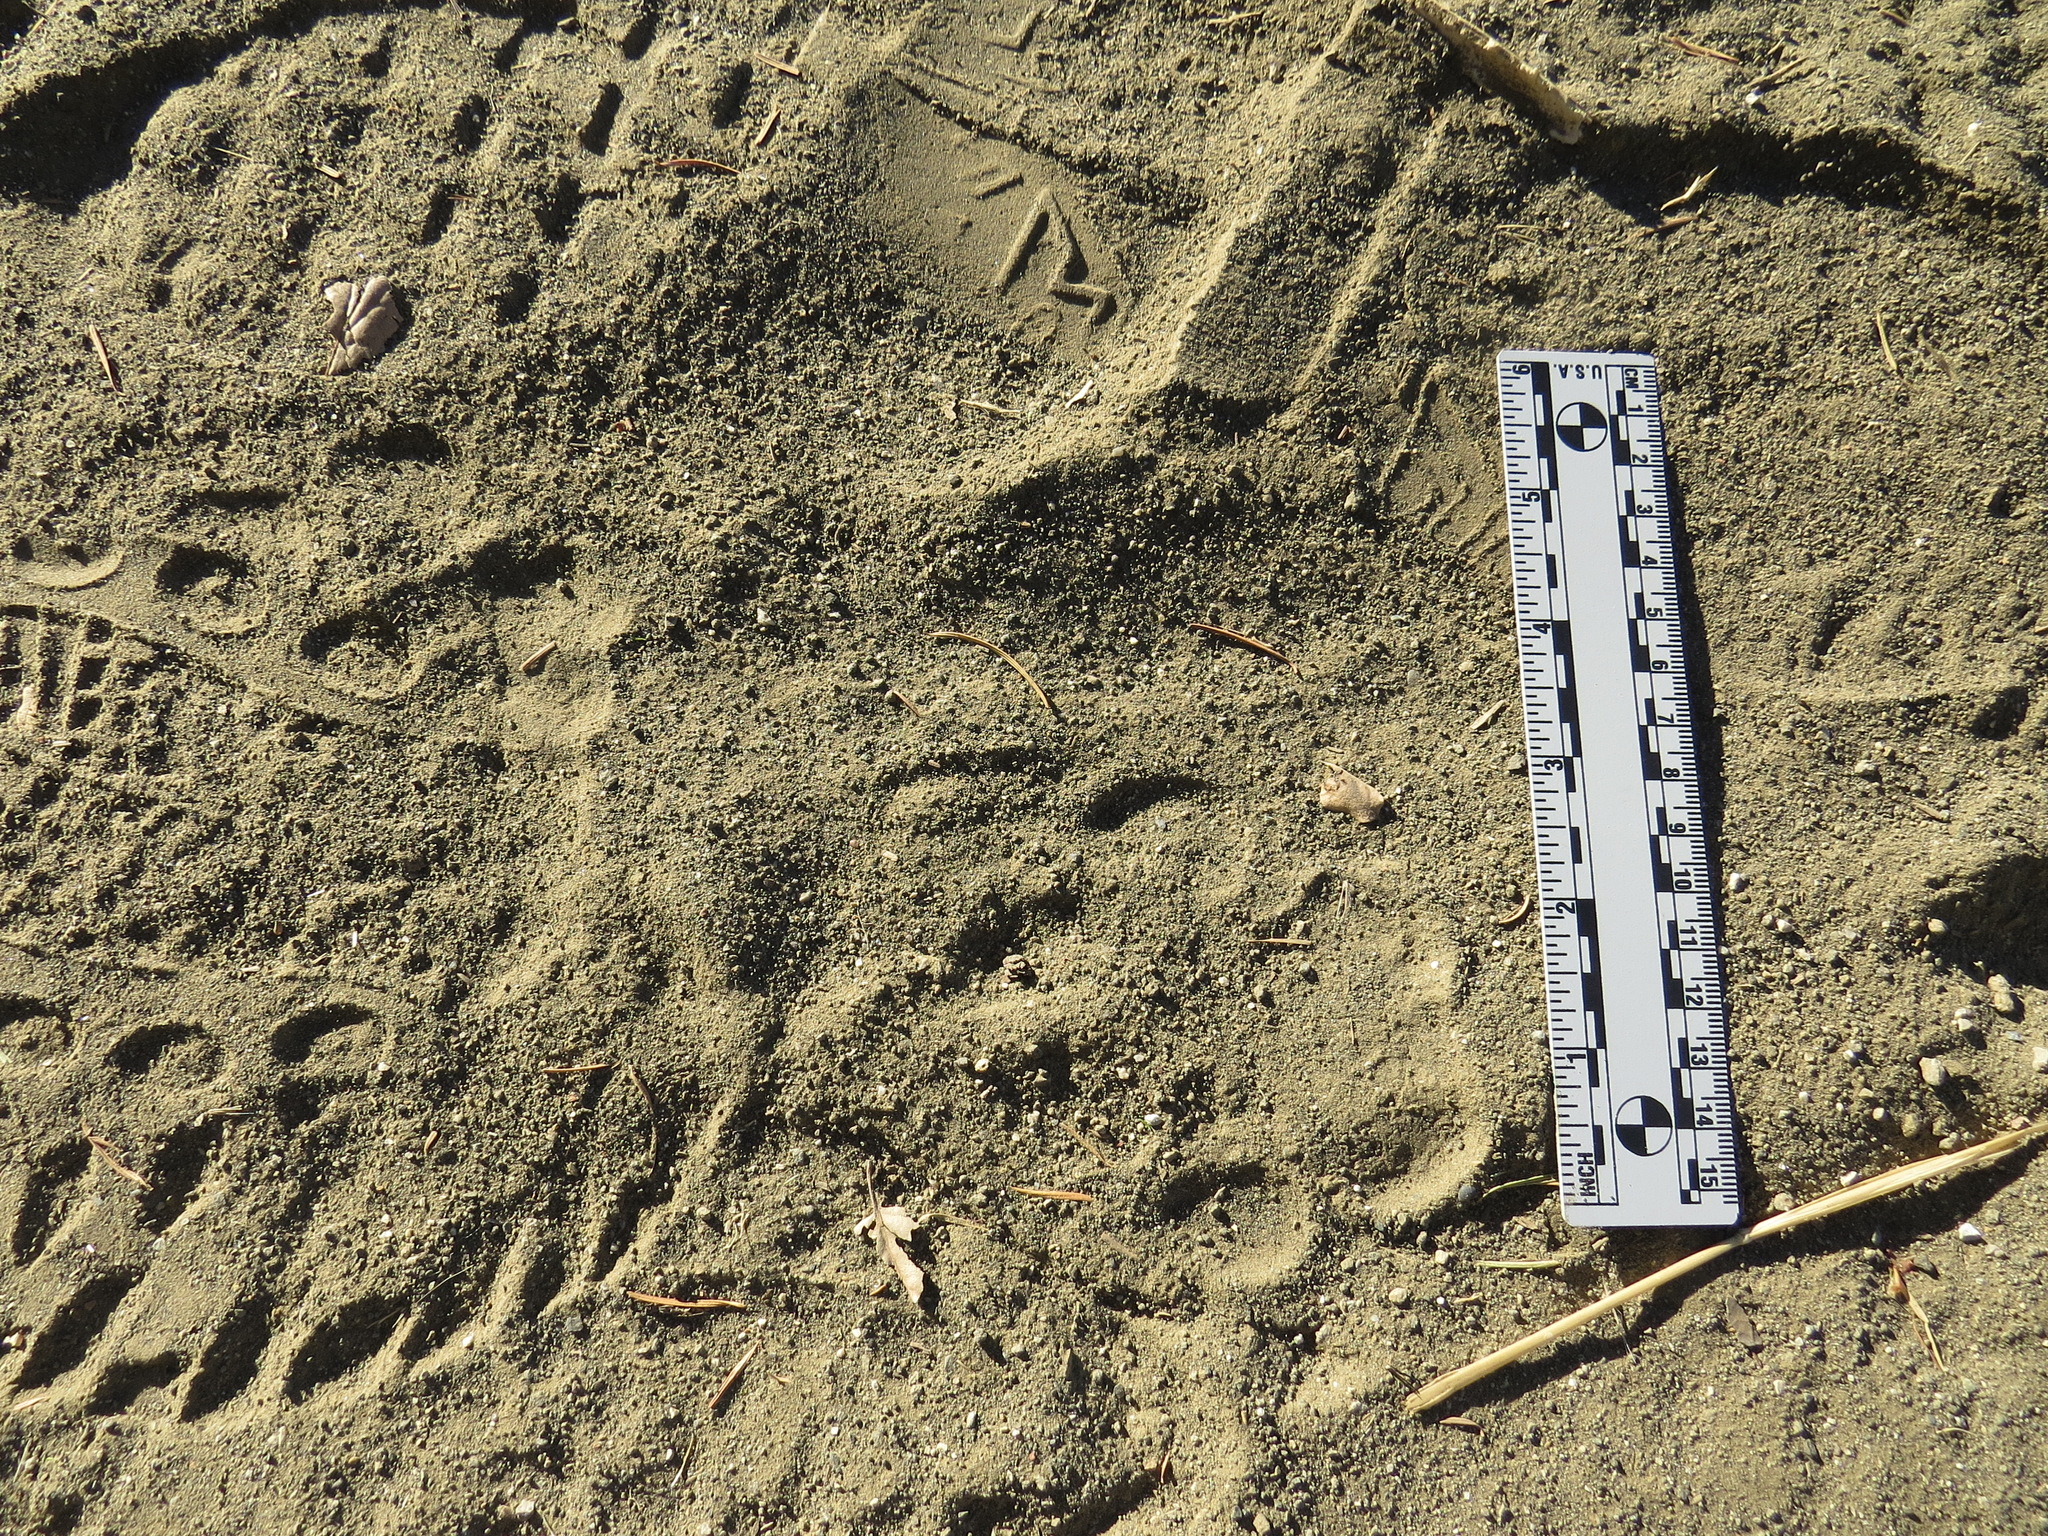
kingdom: Animalia
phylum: Chordata
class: Mammalia
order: Carnivora
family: Felidae
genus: Puma
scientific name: Puma concolor
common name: Puma
